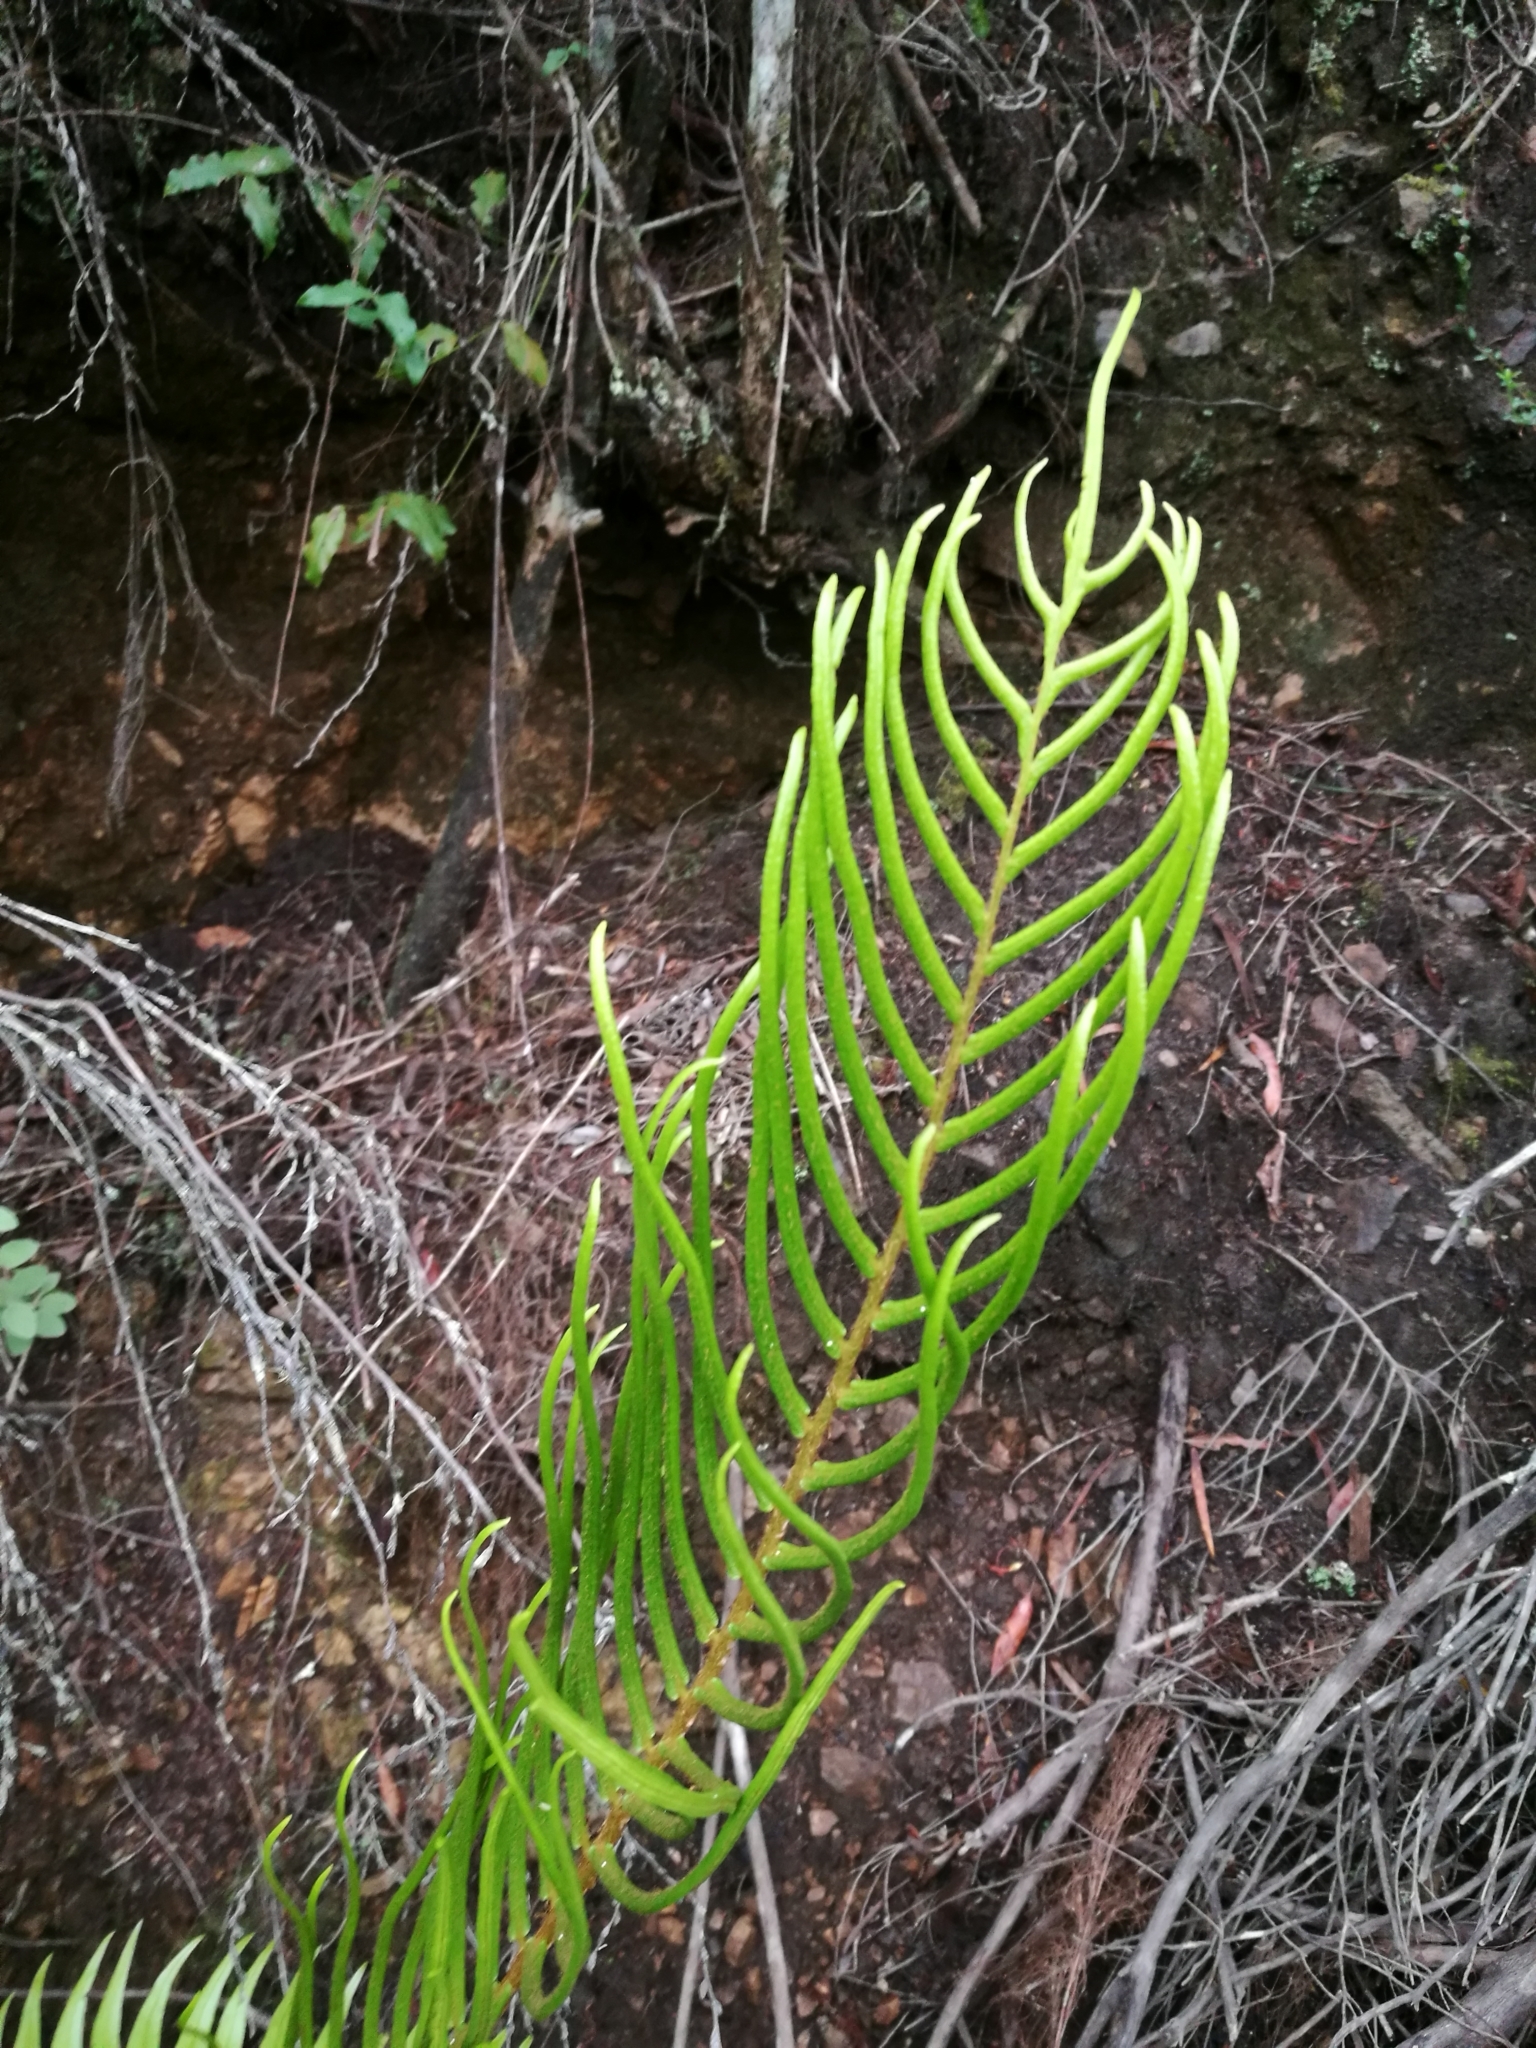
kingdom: Plantae
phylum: Tracheophyta
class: Polypodiopsida
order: Polypodiales
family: Blechnaceae
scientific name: Blechnaceae
